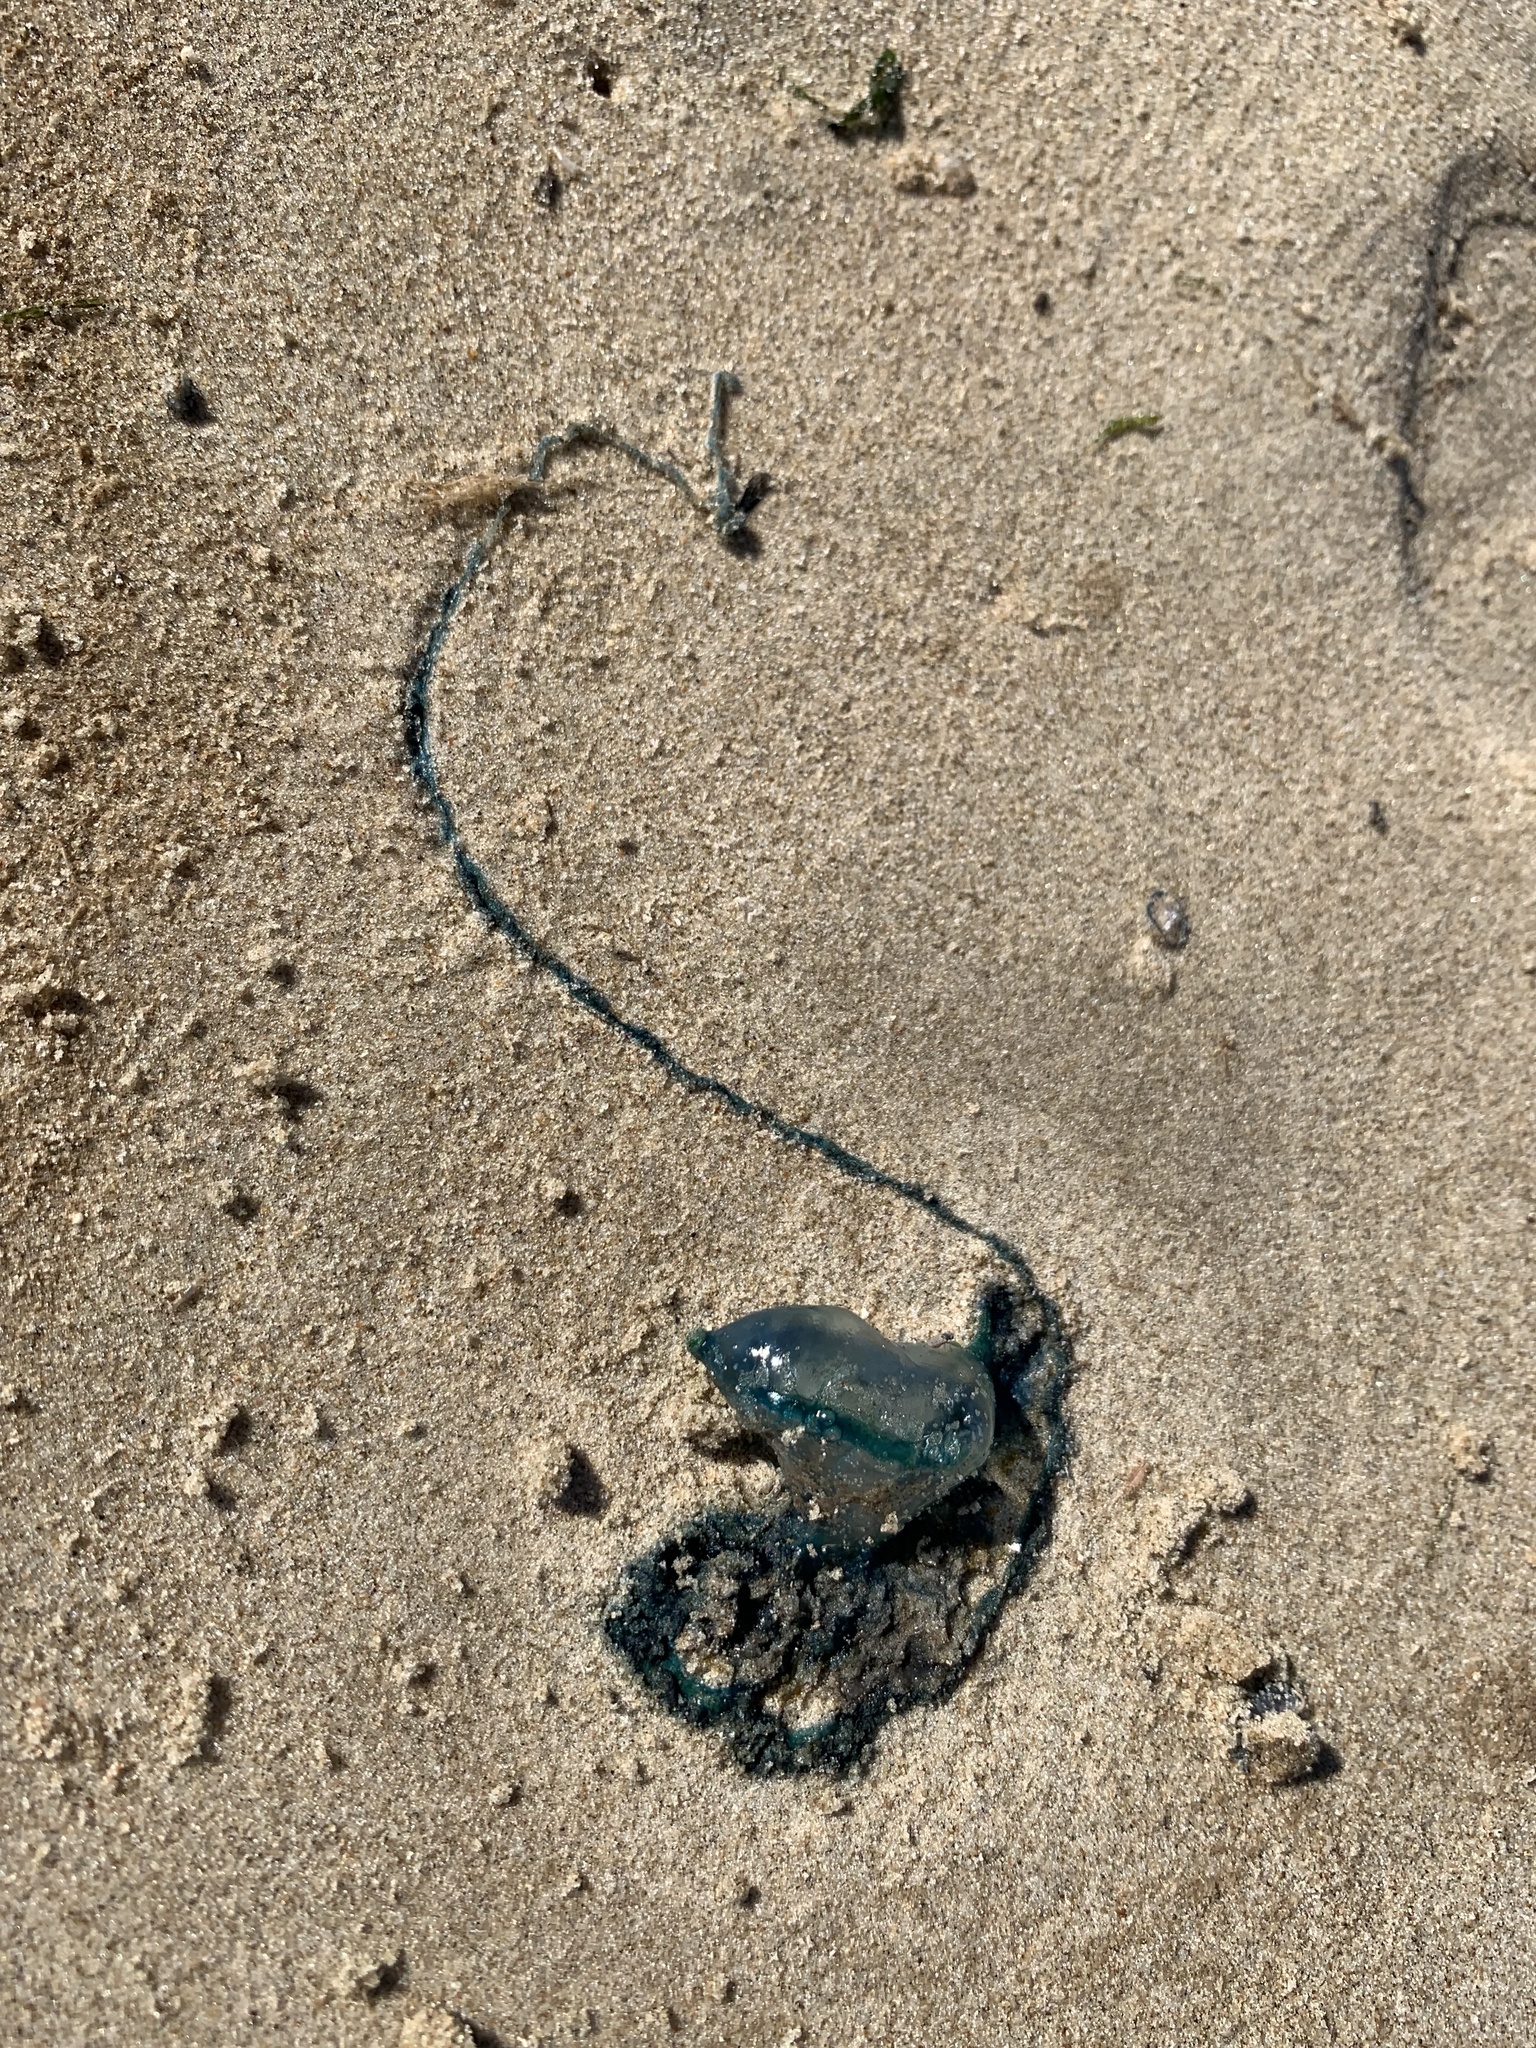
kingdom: Animalia
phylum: Cnidaria
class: Hydrozoa
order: Siphonophorae
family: Physaliidae
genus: Physalia
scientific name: Physalia physalis
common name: Portuguese man-of-war
